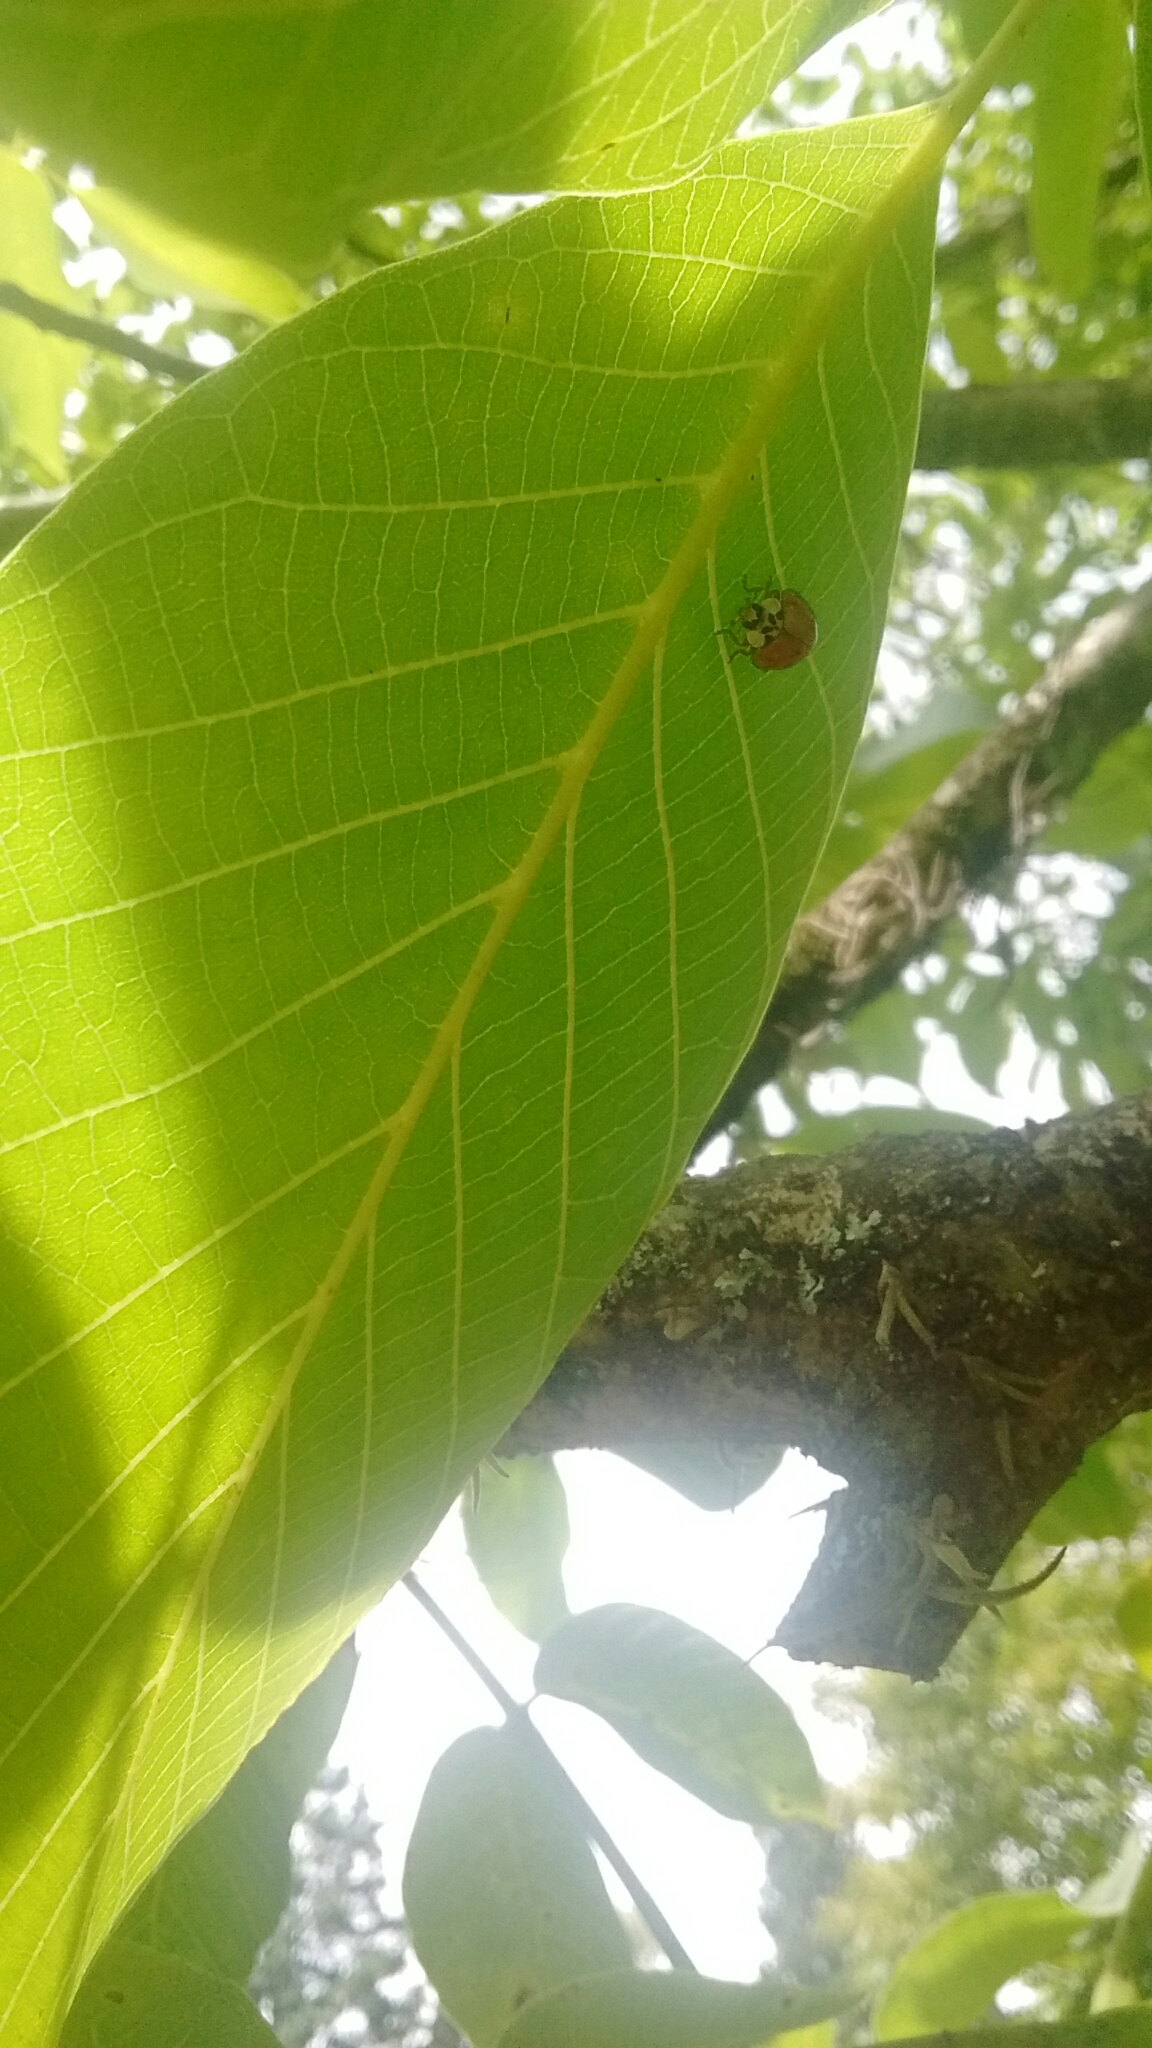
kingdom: Animalia
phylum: Arthropoda
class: Insecta
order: Coleoptera
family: Coccinellidae
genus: Harmonia
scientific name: Harmonia axyridis
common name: Harlequin ladybird
